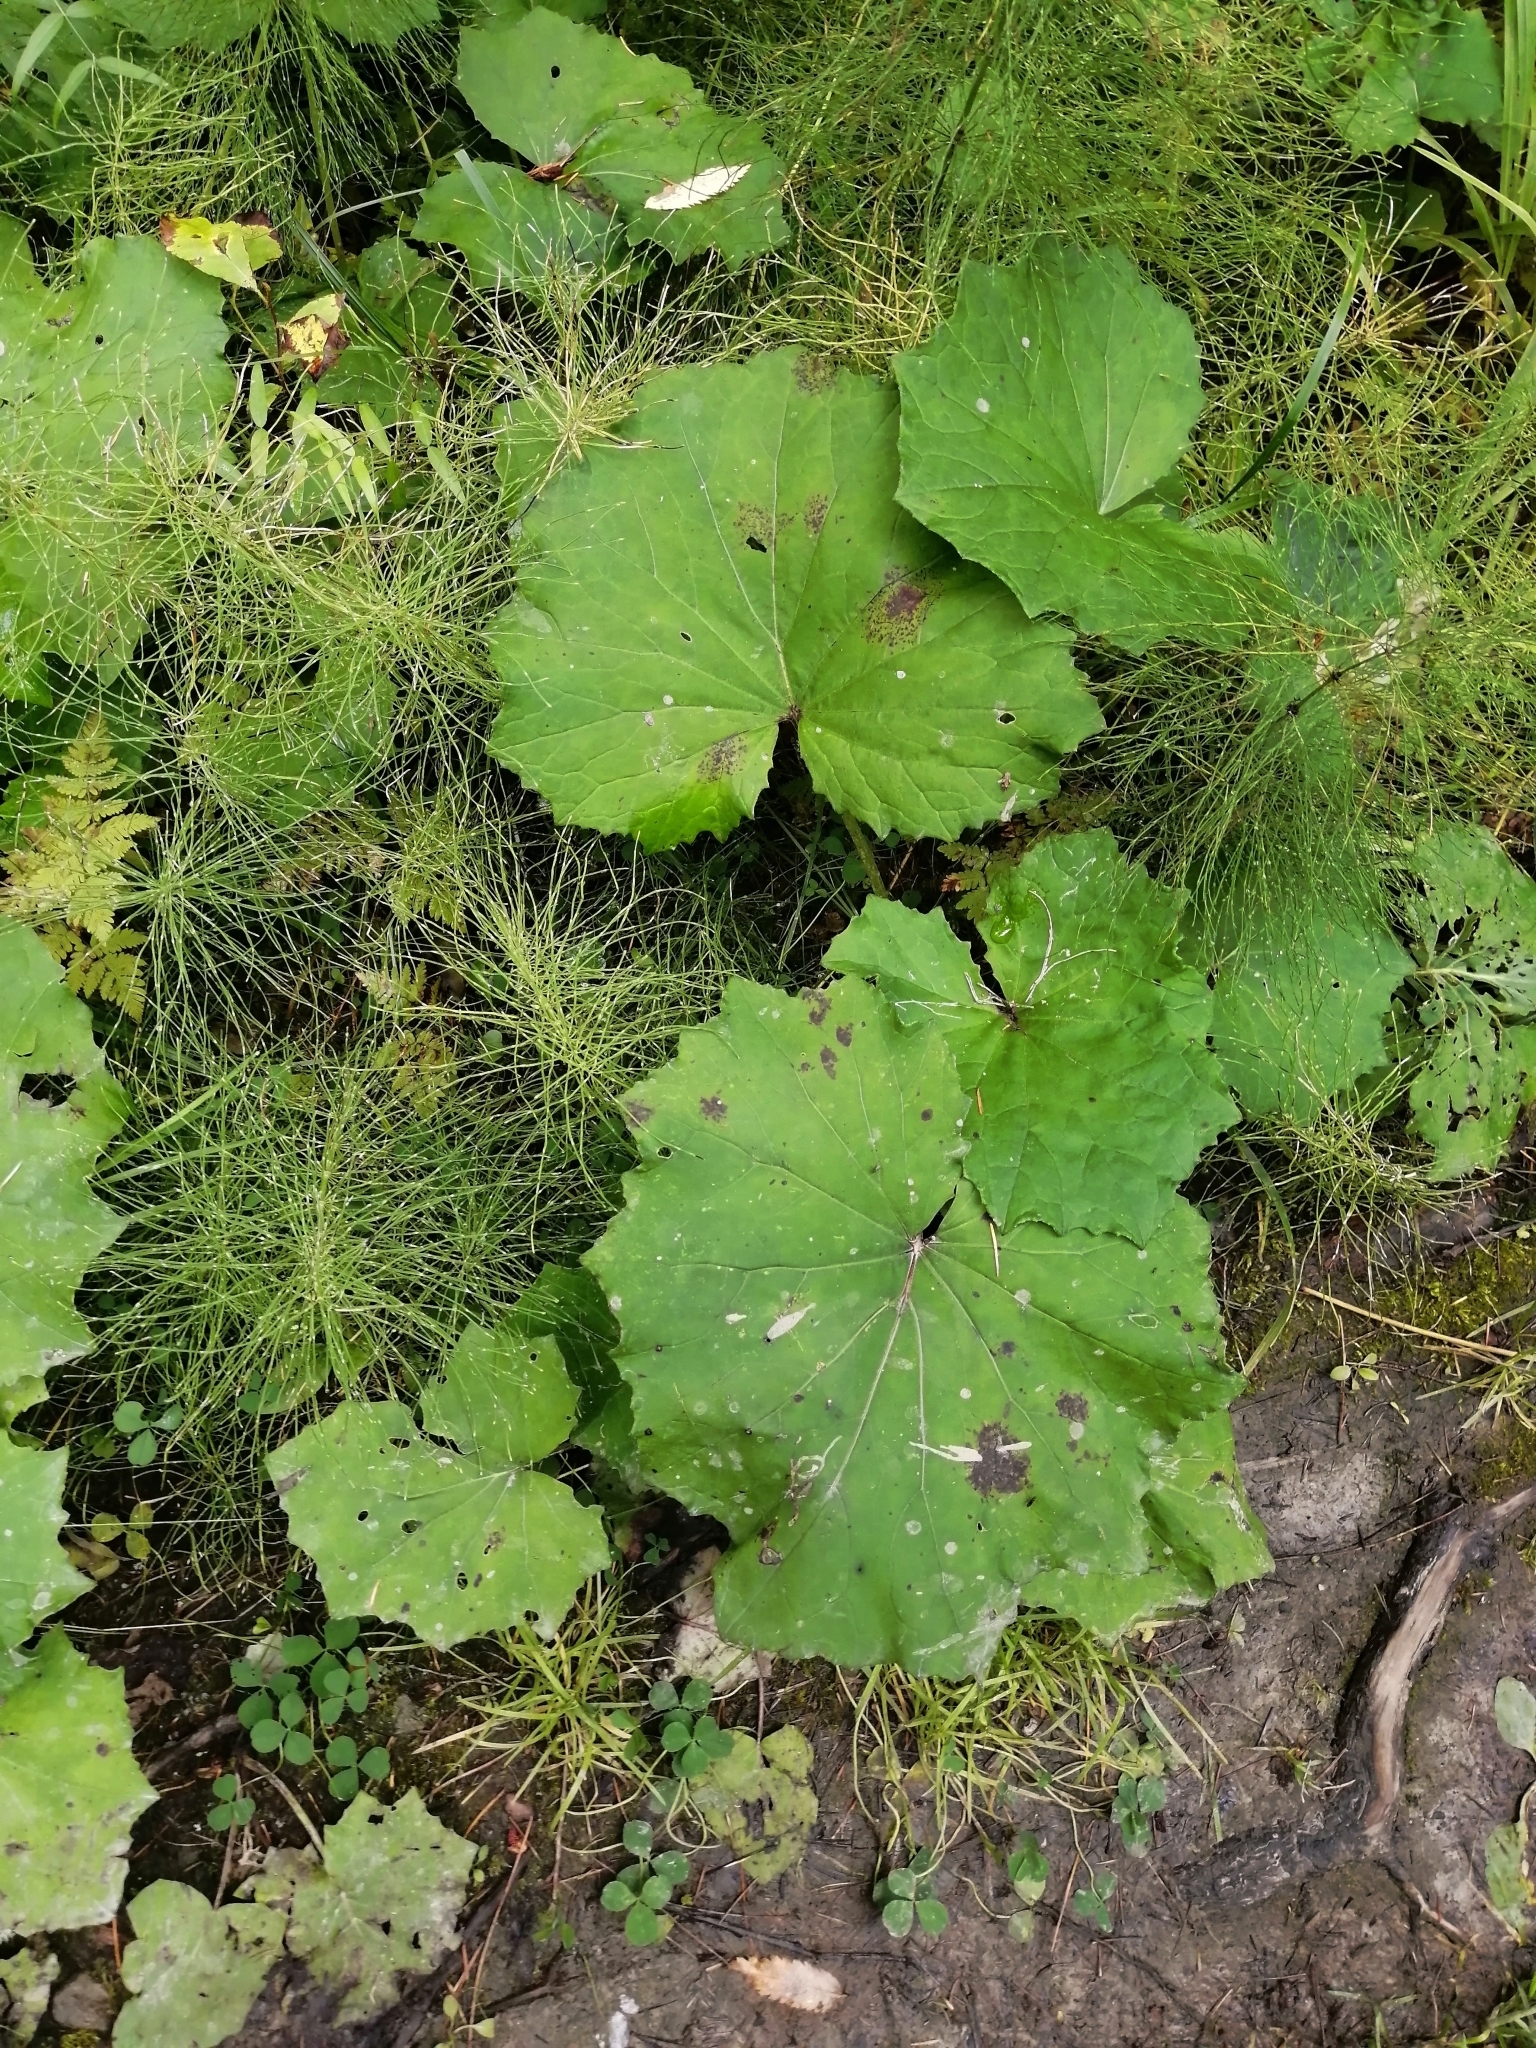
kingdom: Plantae
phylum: Tracheophyta
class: Magnoliopsida
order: Asterales
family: Asteraceae
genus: Tussilago
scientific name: Tussilago farfara
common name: Coltsfoot
